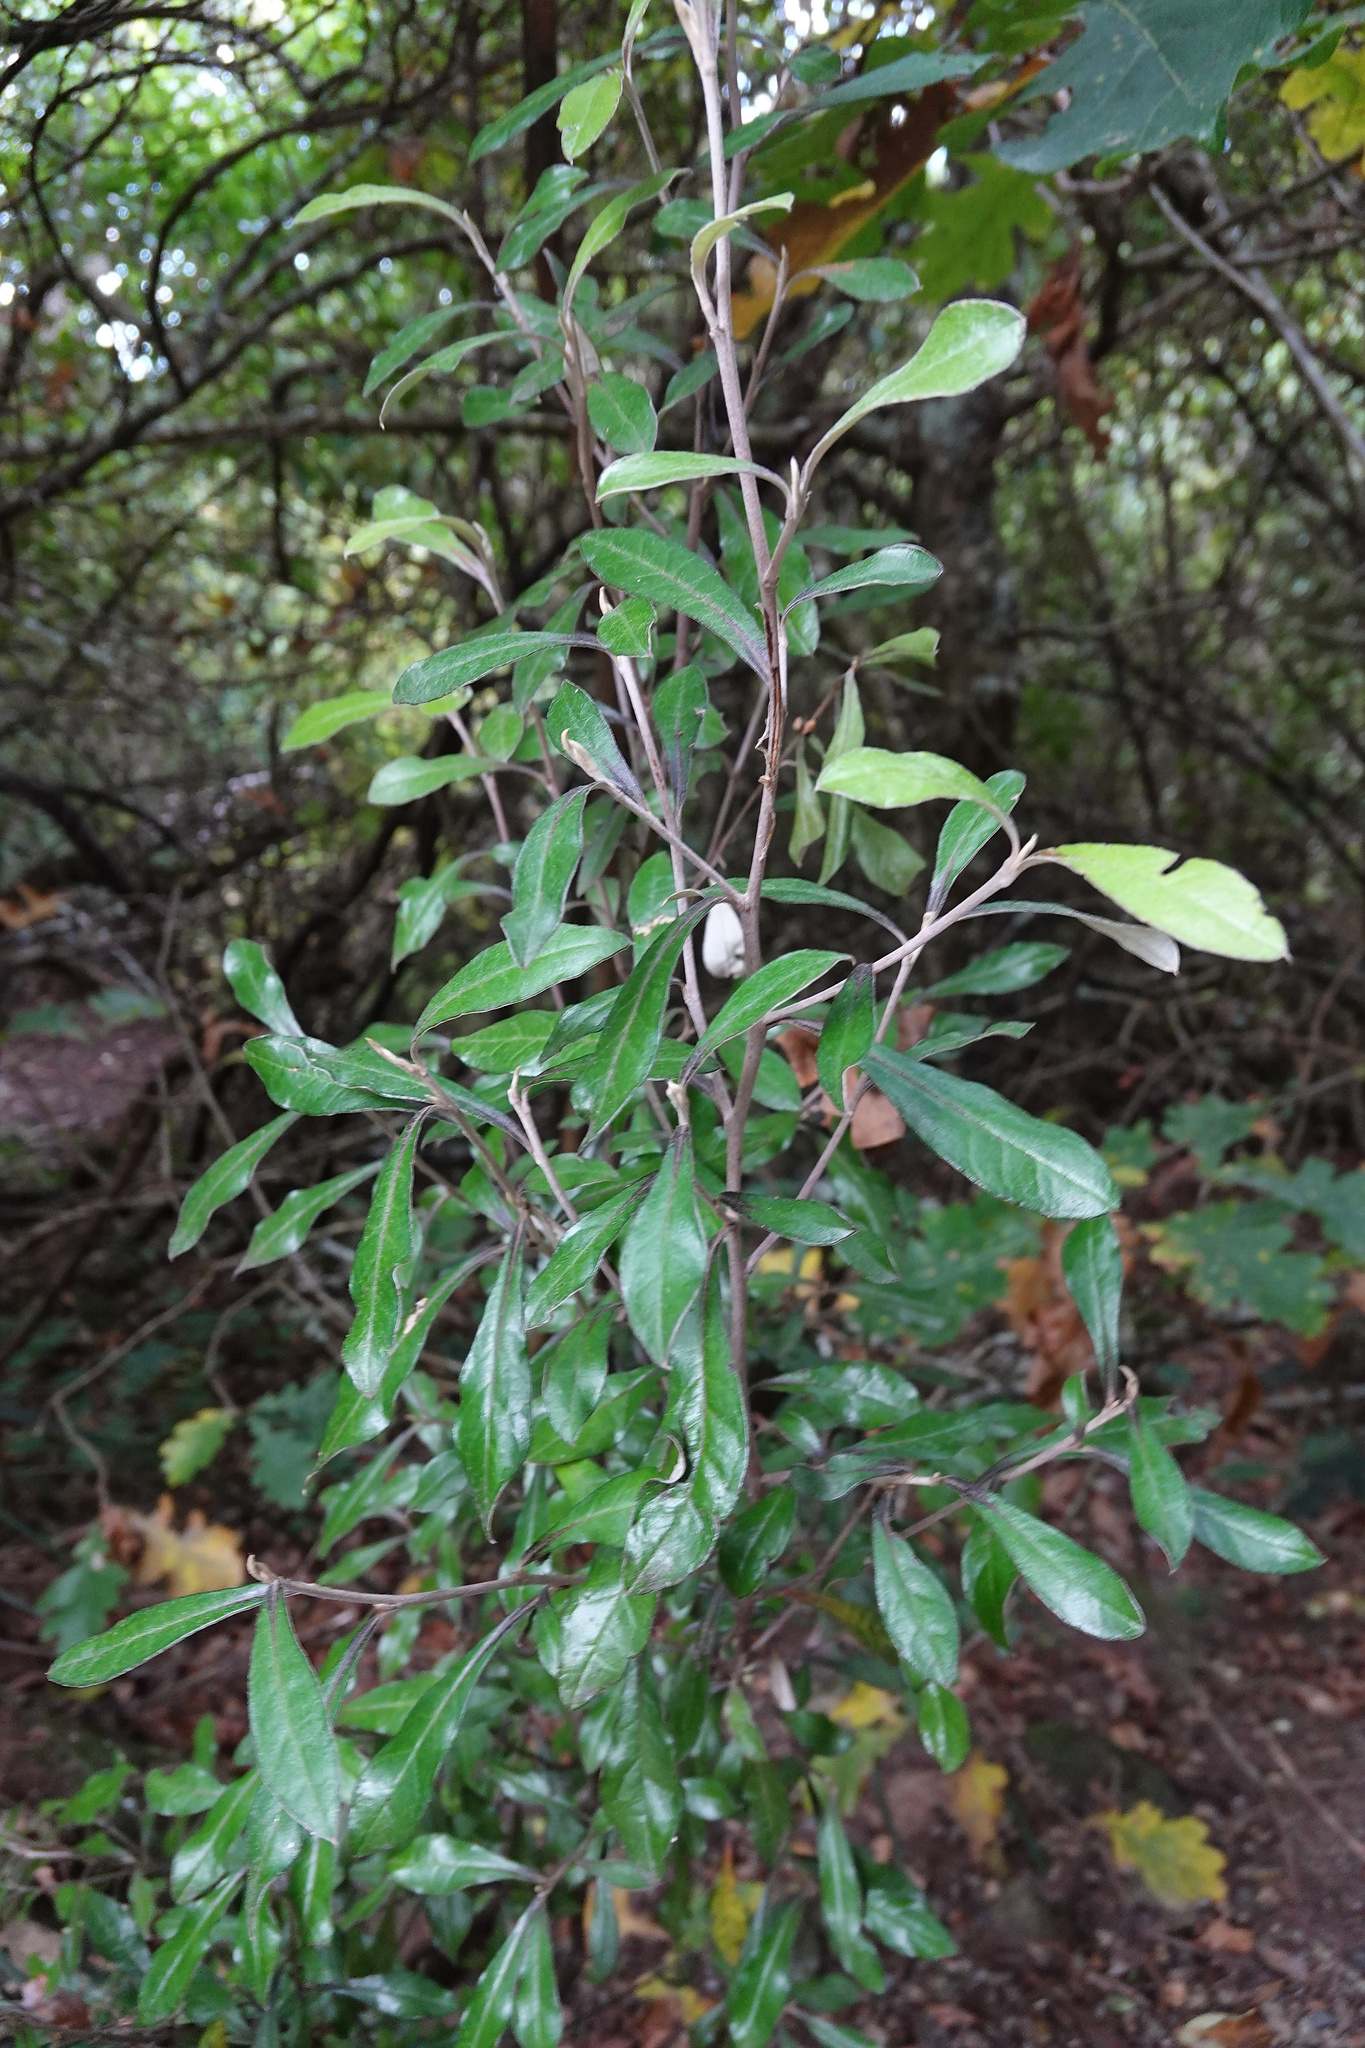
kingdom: Plantae
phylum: Tracheophyta
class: Magnoliopsida
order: Asterales
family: Argophyllaceae
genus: Corokia
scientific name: Corokia virgata
